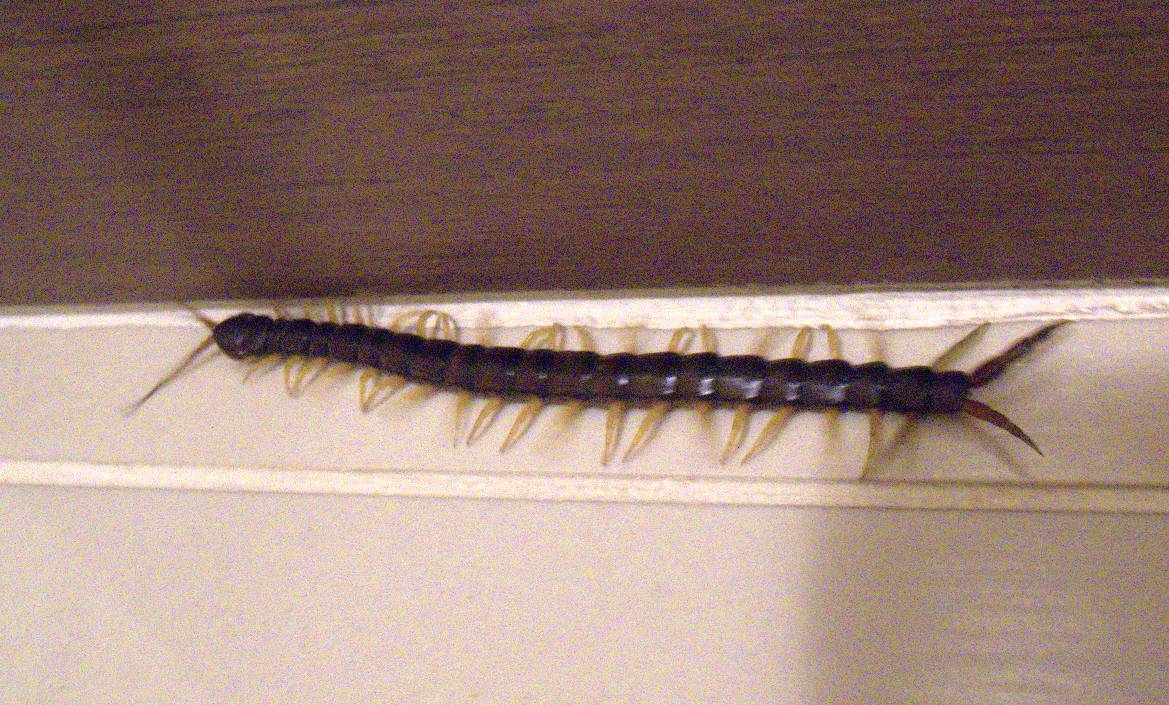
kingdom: Animalia
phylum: Arthropoda
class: Chilopoda
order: Scolopendromorpha
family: Scolopendridae
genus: Scolopendra
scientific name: Scolopendra cingulata
